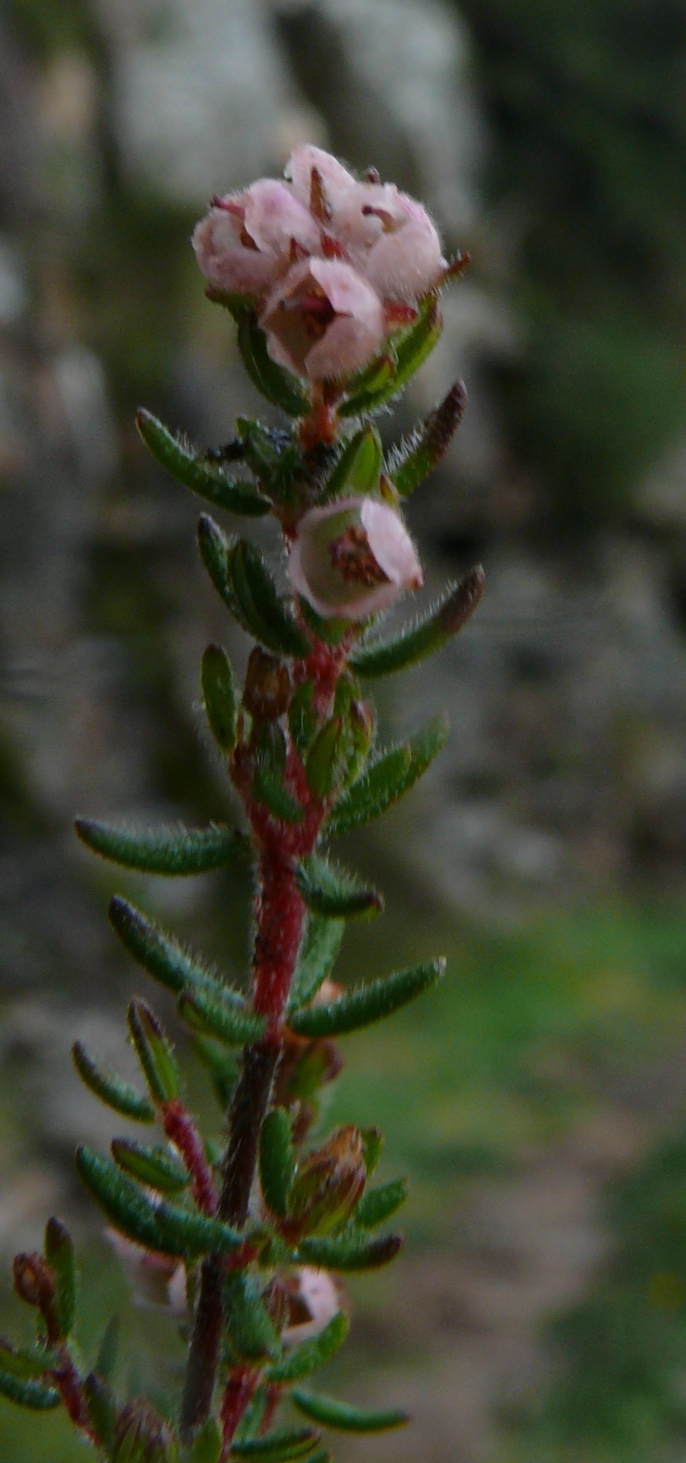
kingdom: Plantae
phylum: Tracheophyta
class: Magnoliopsida
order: Ericales
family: Ericaceae
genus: Erica
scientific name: Erica distorta
